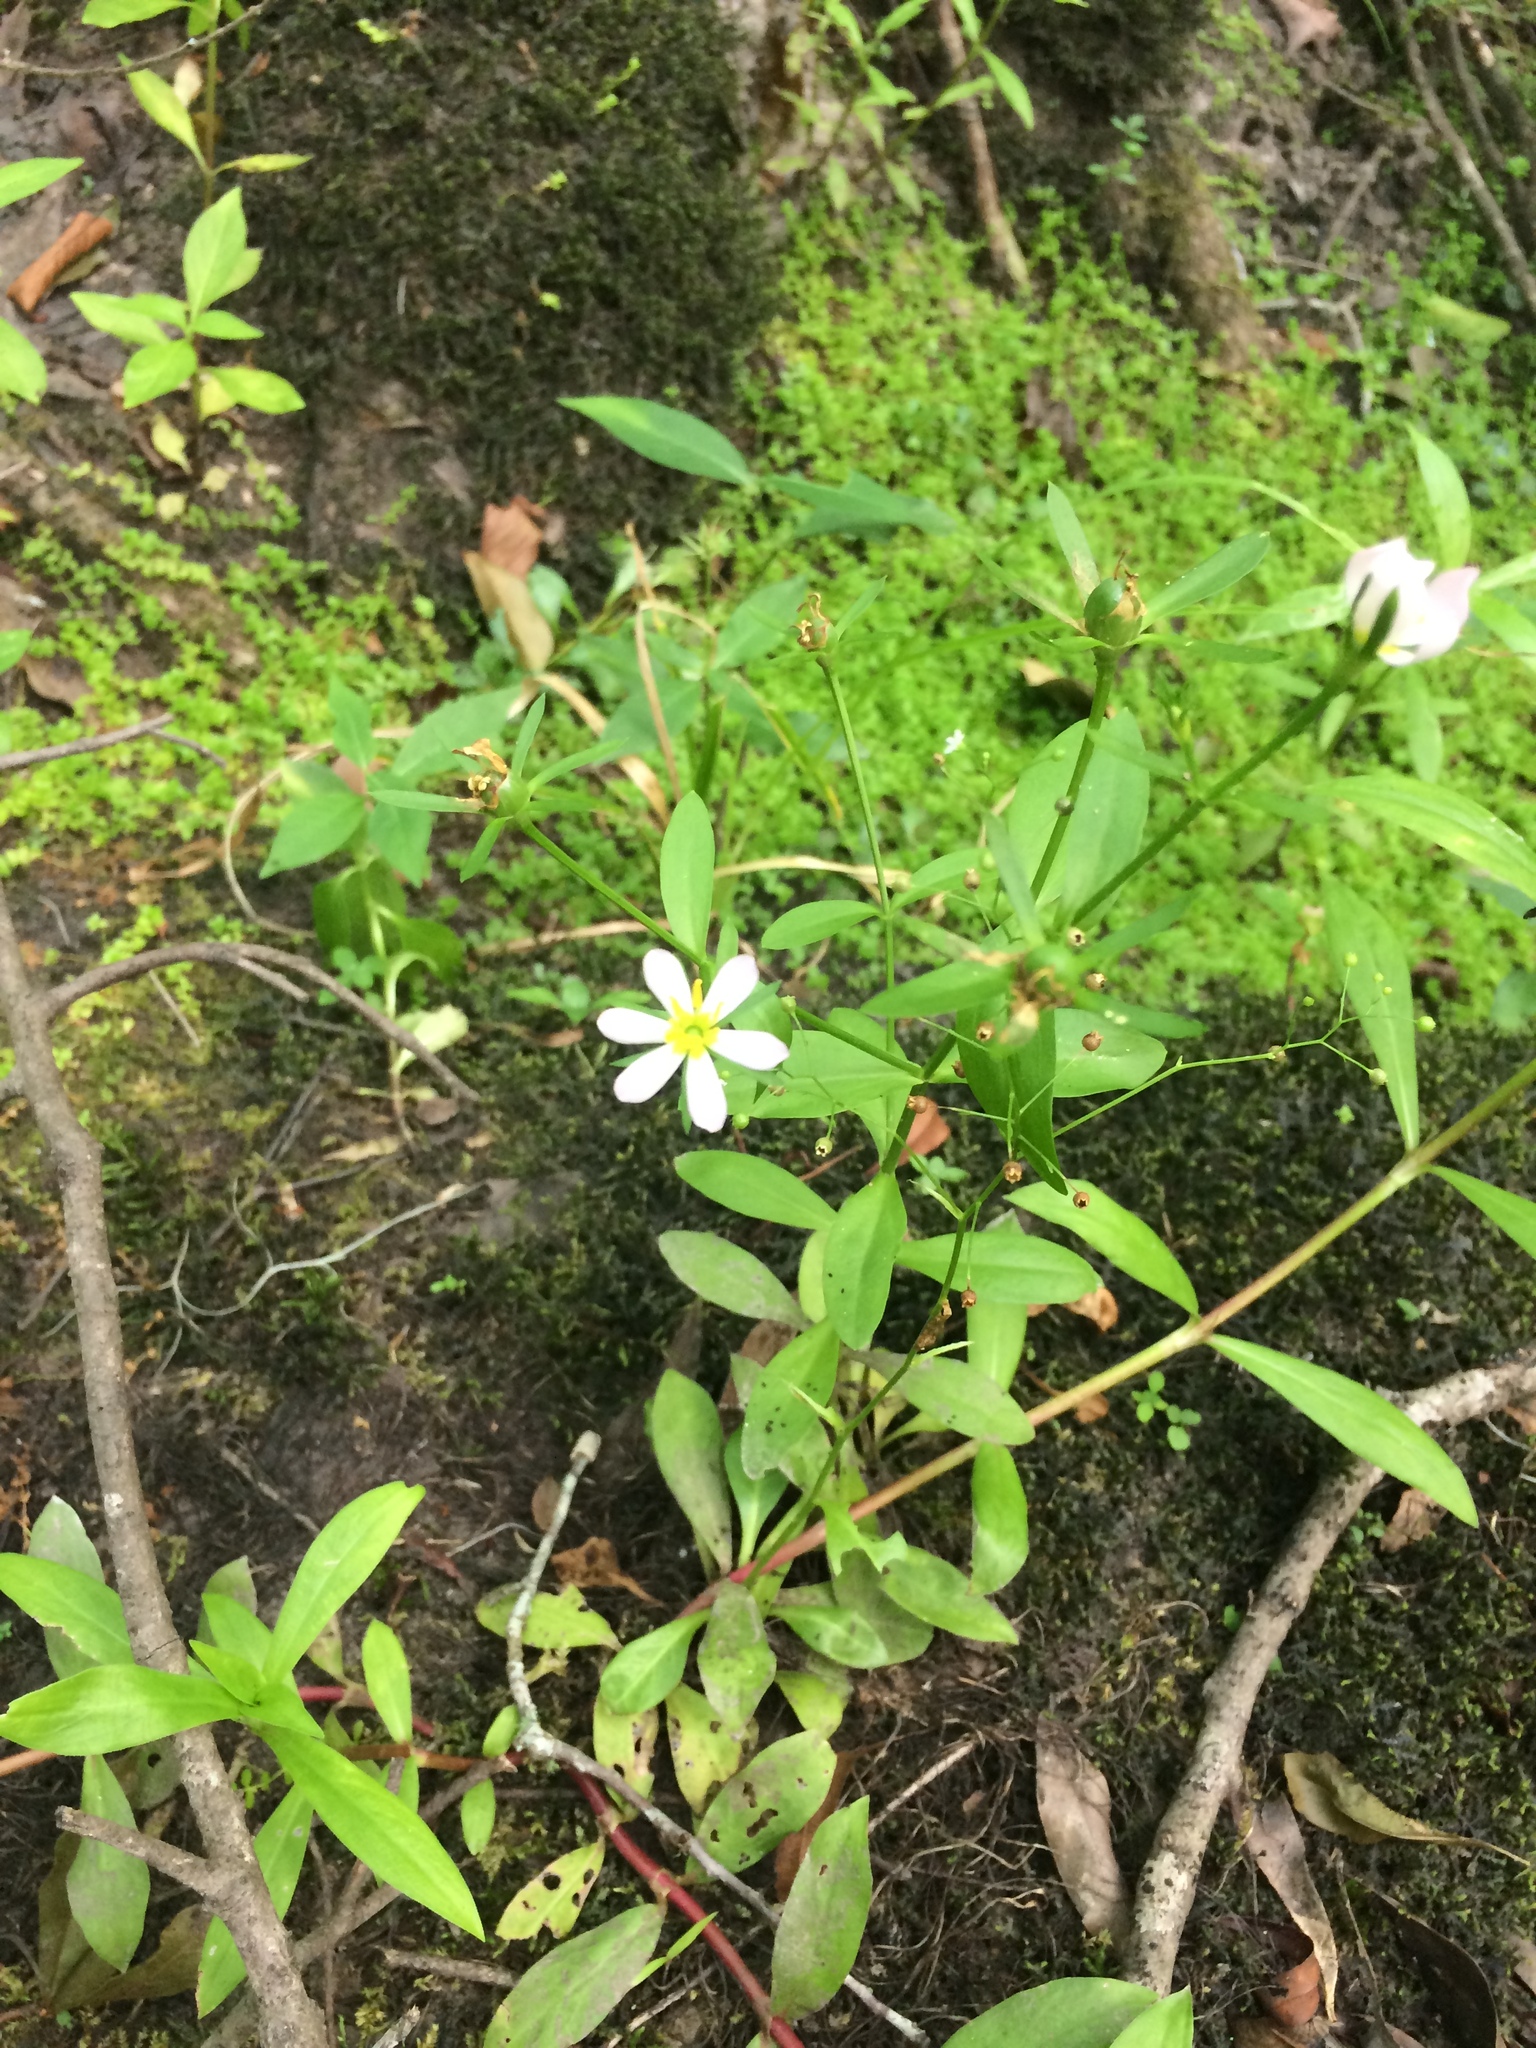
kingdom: Plantae
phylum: Tracheophyta
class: Magnoliopsida
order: Gentianales
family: Gentianaceae
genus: Sabatia
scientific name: Sabatia calycina
